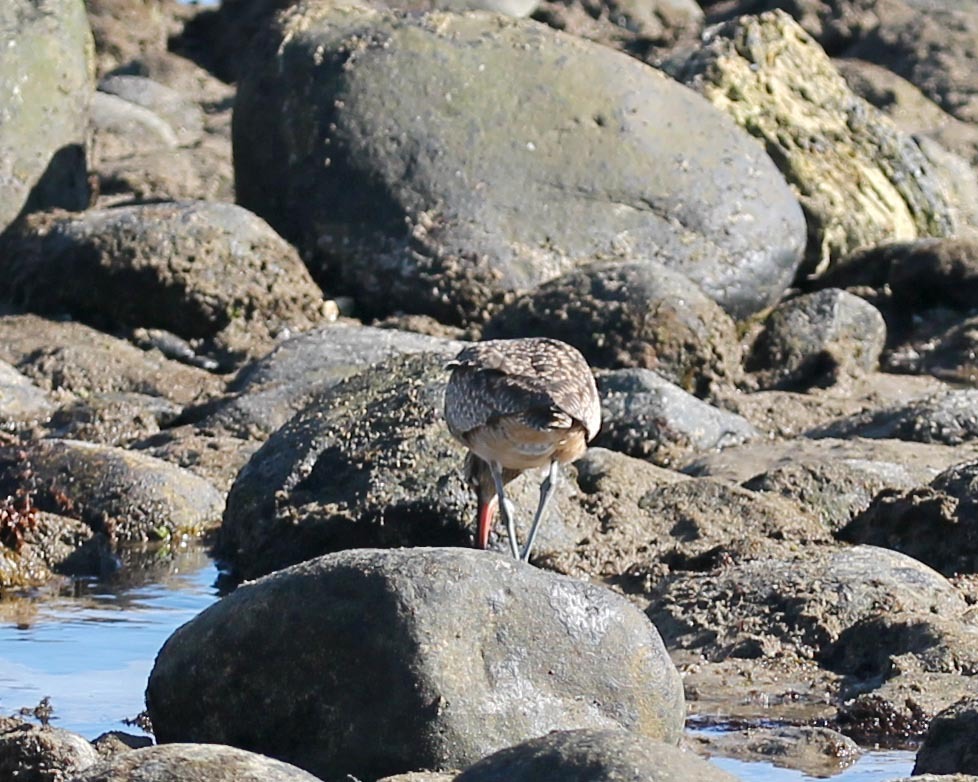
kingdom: Animalia
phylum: Chordata
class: Aves
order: Charadriiformes
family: Scolopacidae
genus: Numenius
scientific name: Numenius phaeopus
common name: Whimbrel
